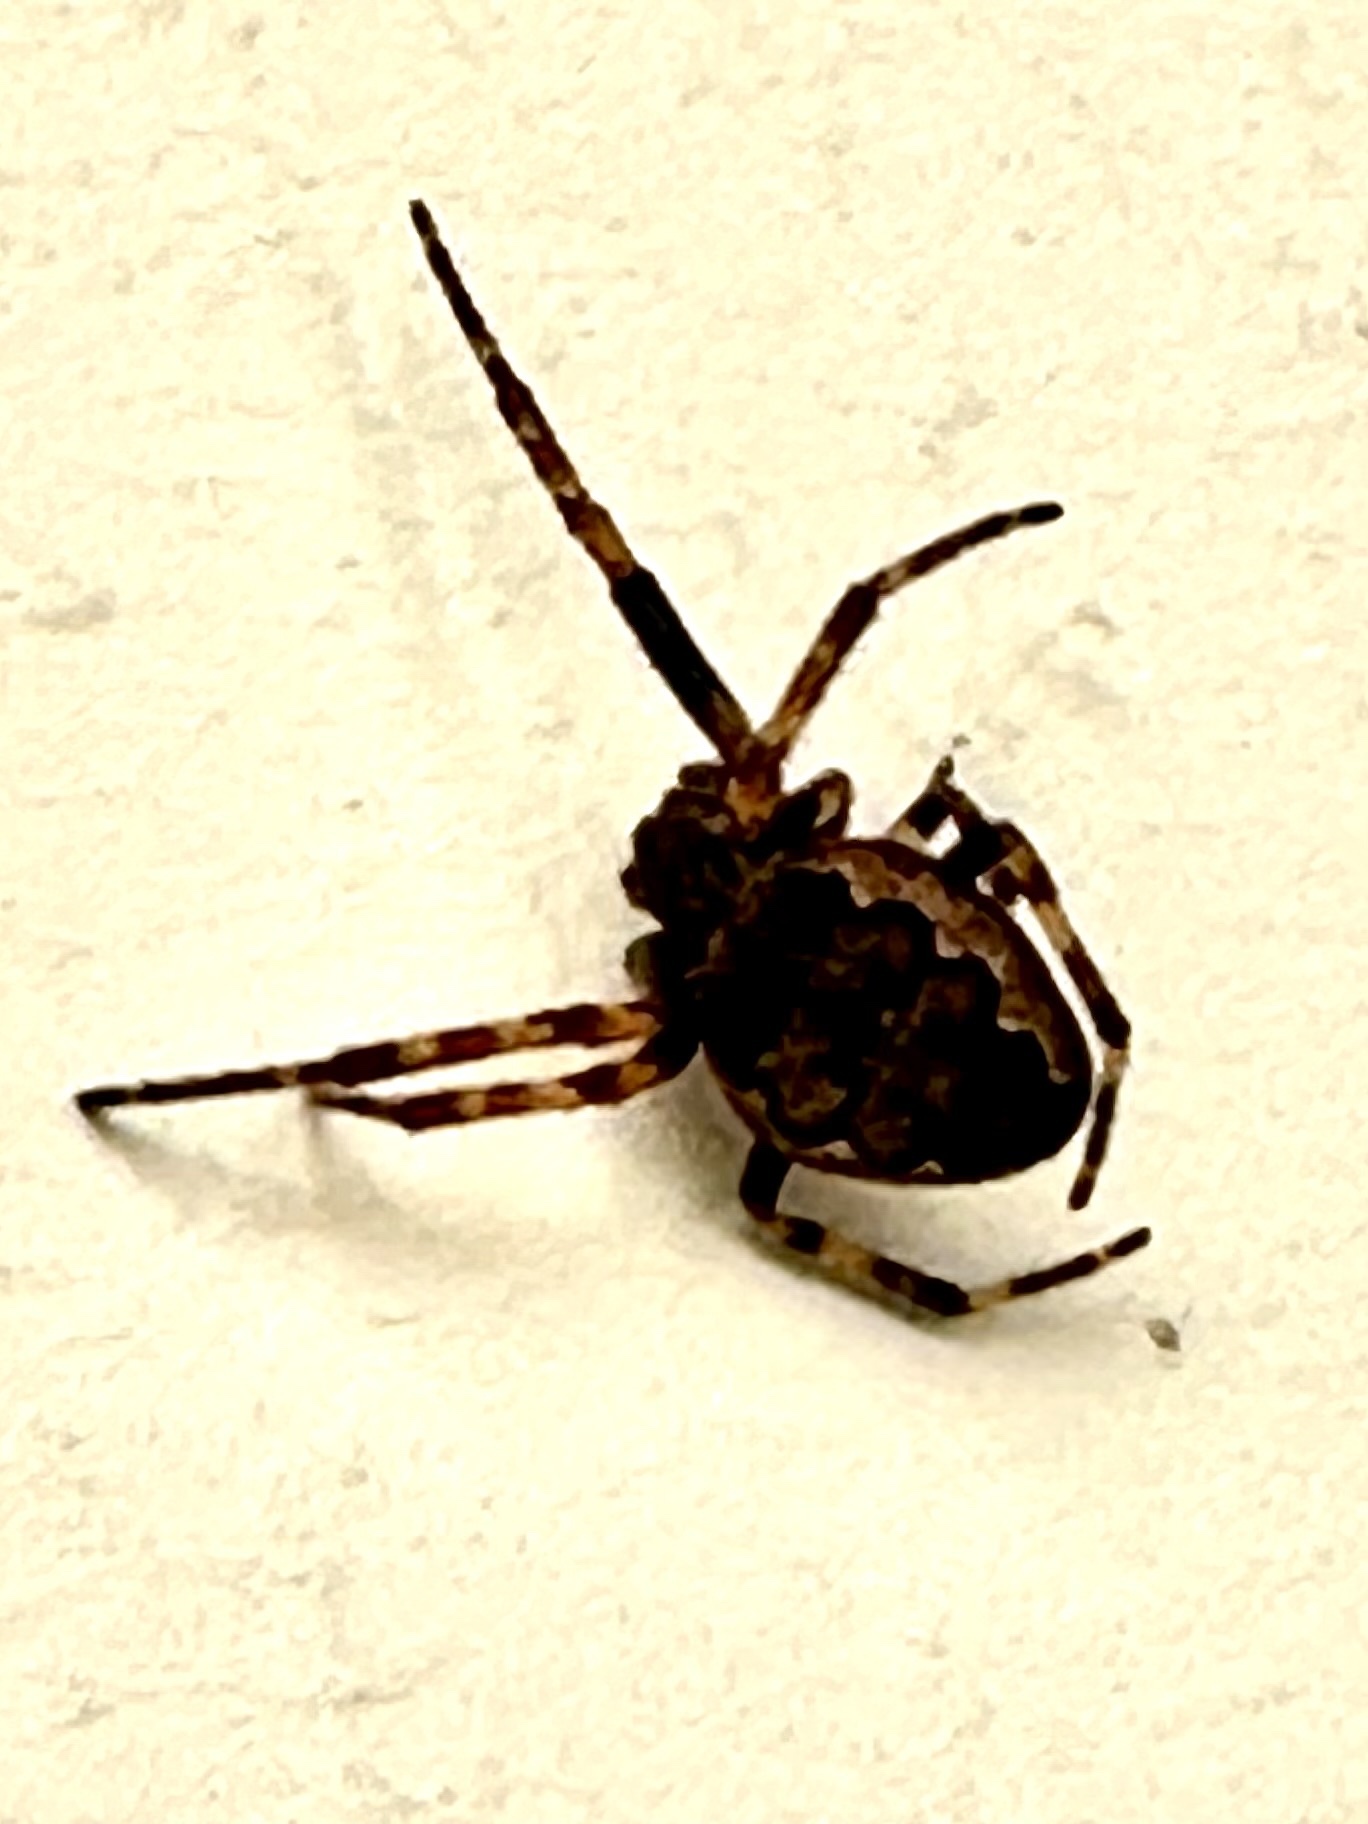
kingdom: Animalia
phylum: Arthropoda
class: Arachnida
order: Araneae
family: Araneidae
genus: Nuctenea
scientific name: Nuctenea umbratica
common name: Toad spider
